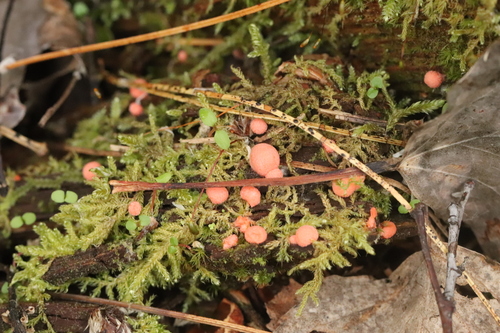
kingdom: Protozoa
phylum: Mycetozoa
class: Myxomycetes
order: Cribrariales
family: Tubiferaceae
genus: Lycogala
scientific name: Lycogala epidendrum
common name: Wolf's milk
